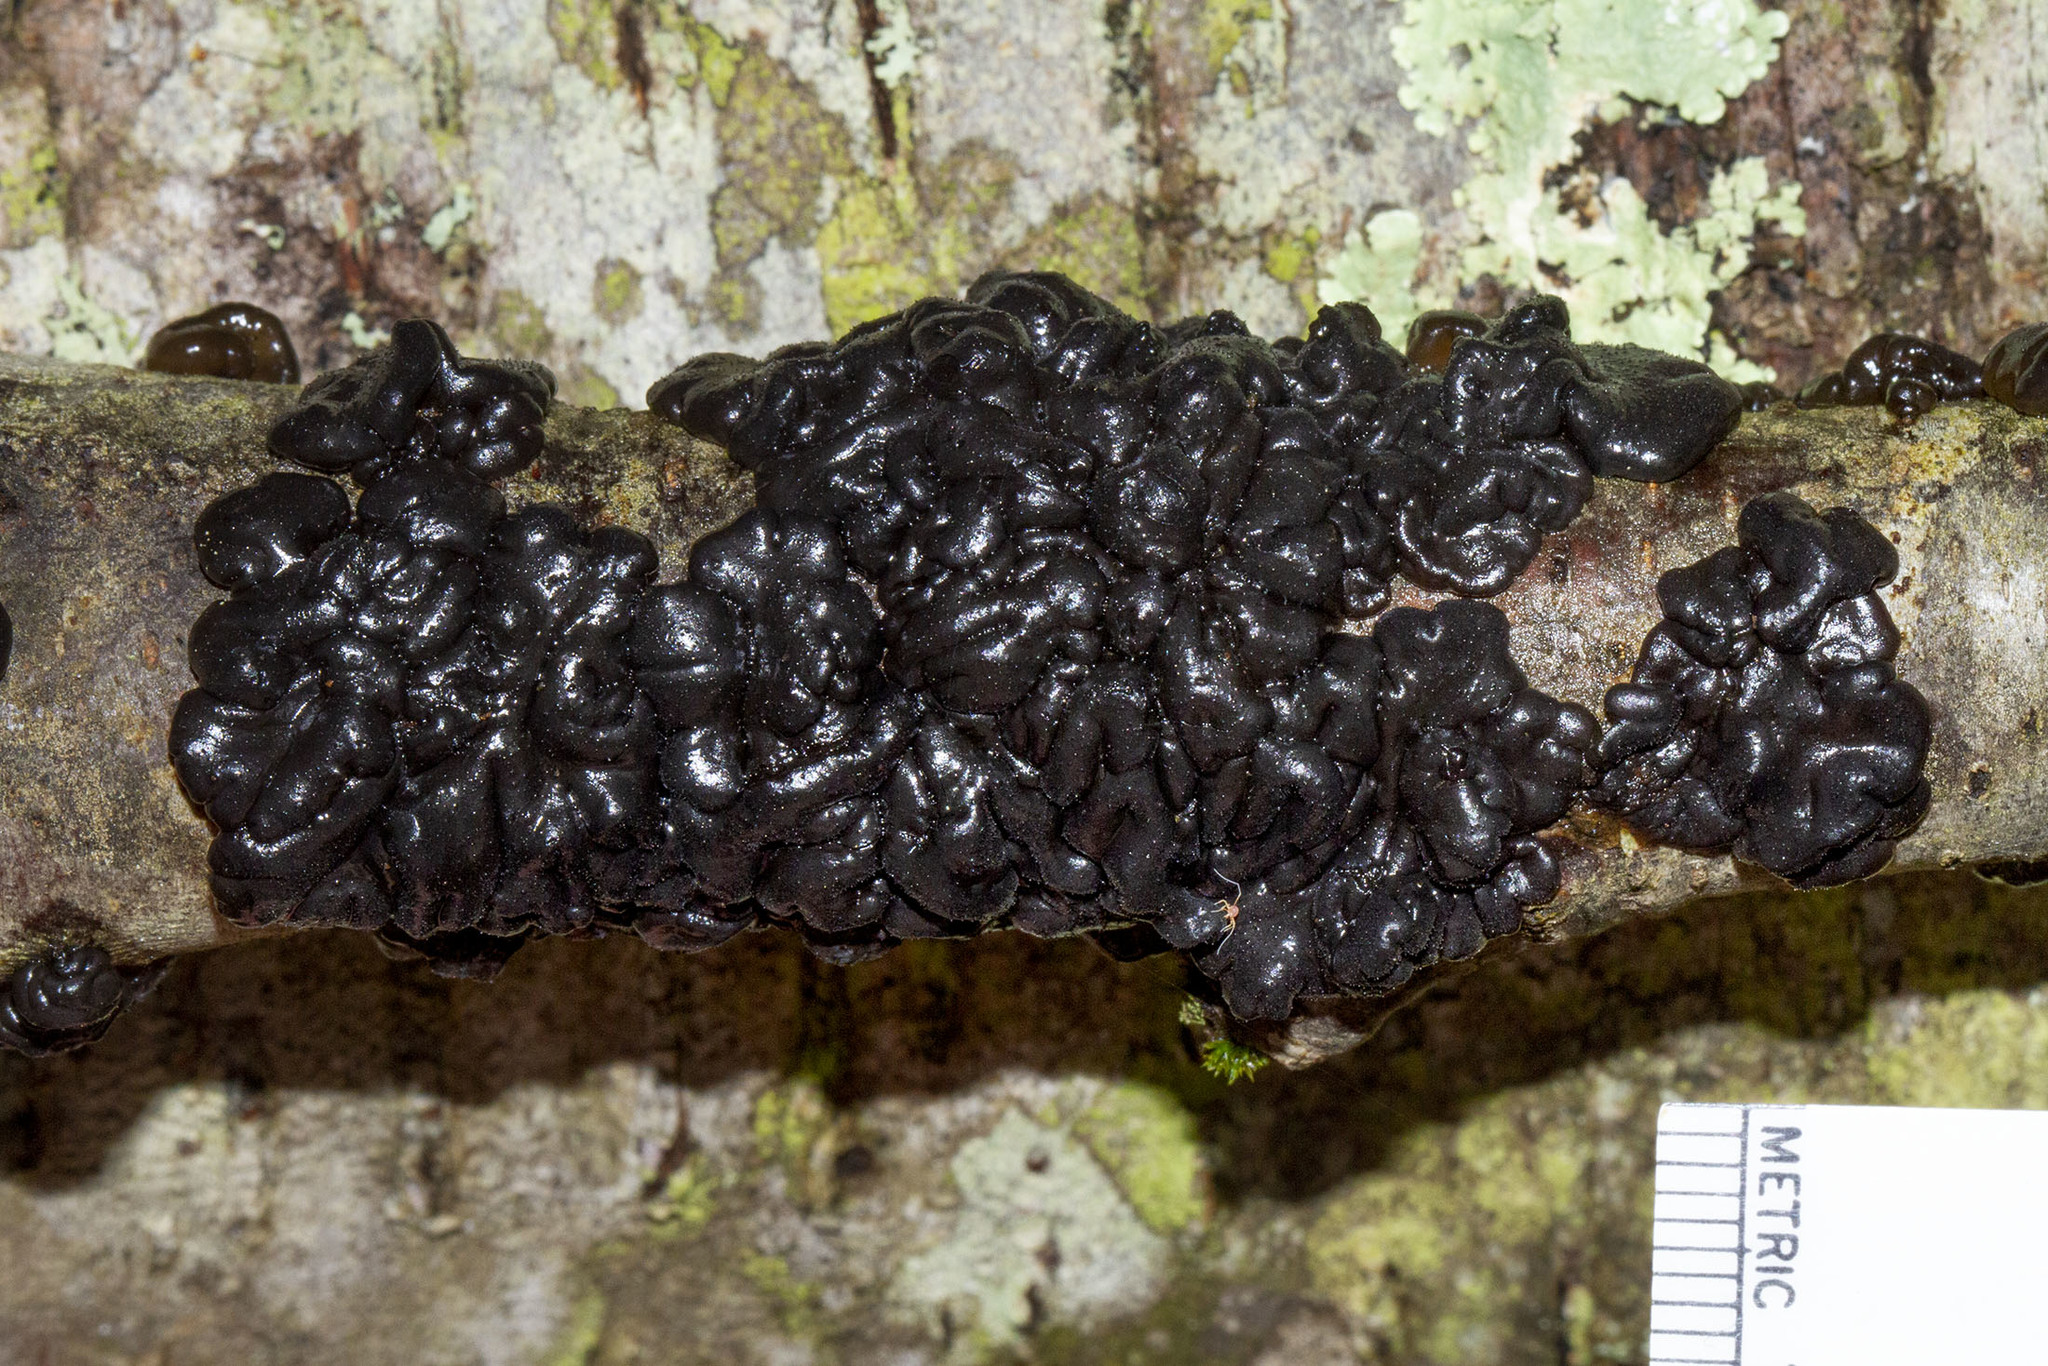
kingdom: Fungi
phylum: Basidiomycota
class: Agaricomycetes
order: Auriculariales
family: Auriculariaceae
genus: Exidia
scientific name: Exidia glandulosa
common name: Witches' butter
